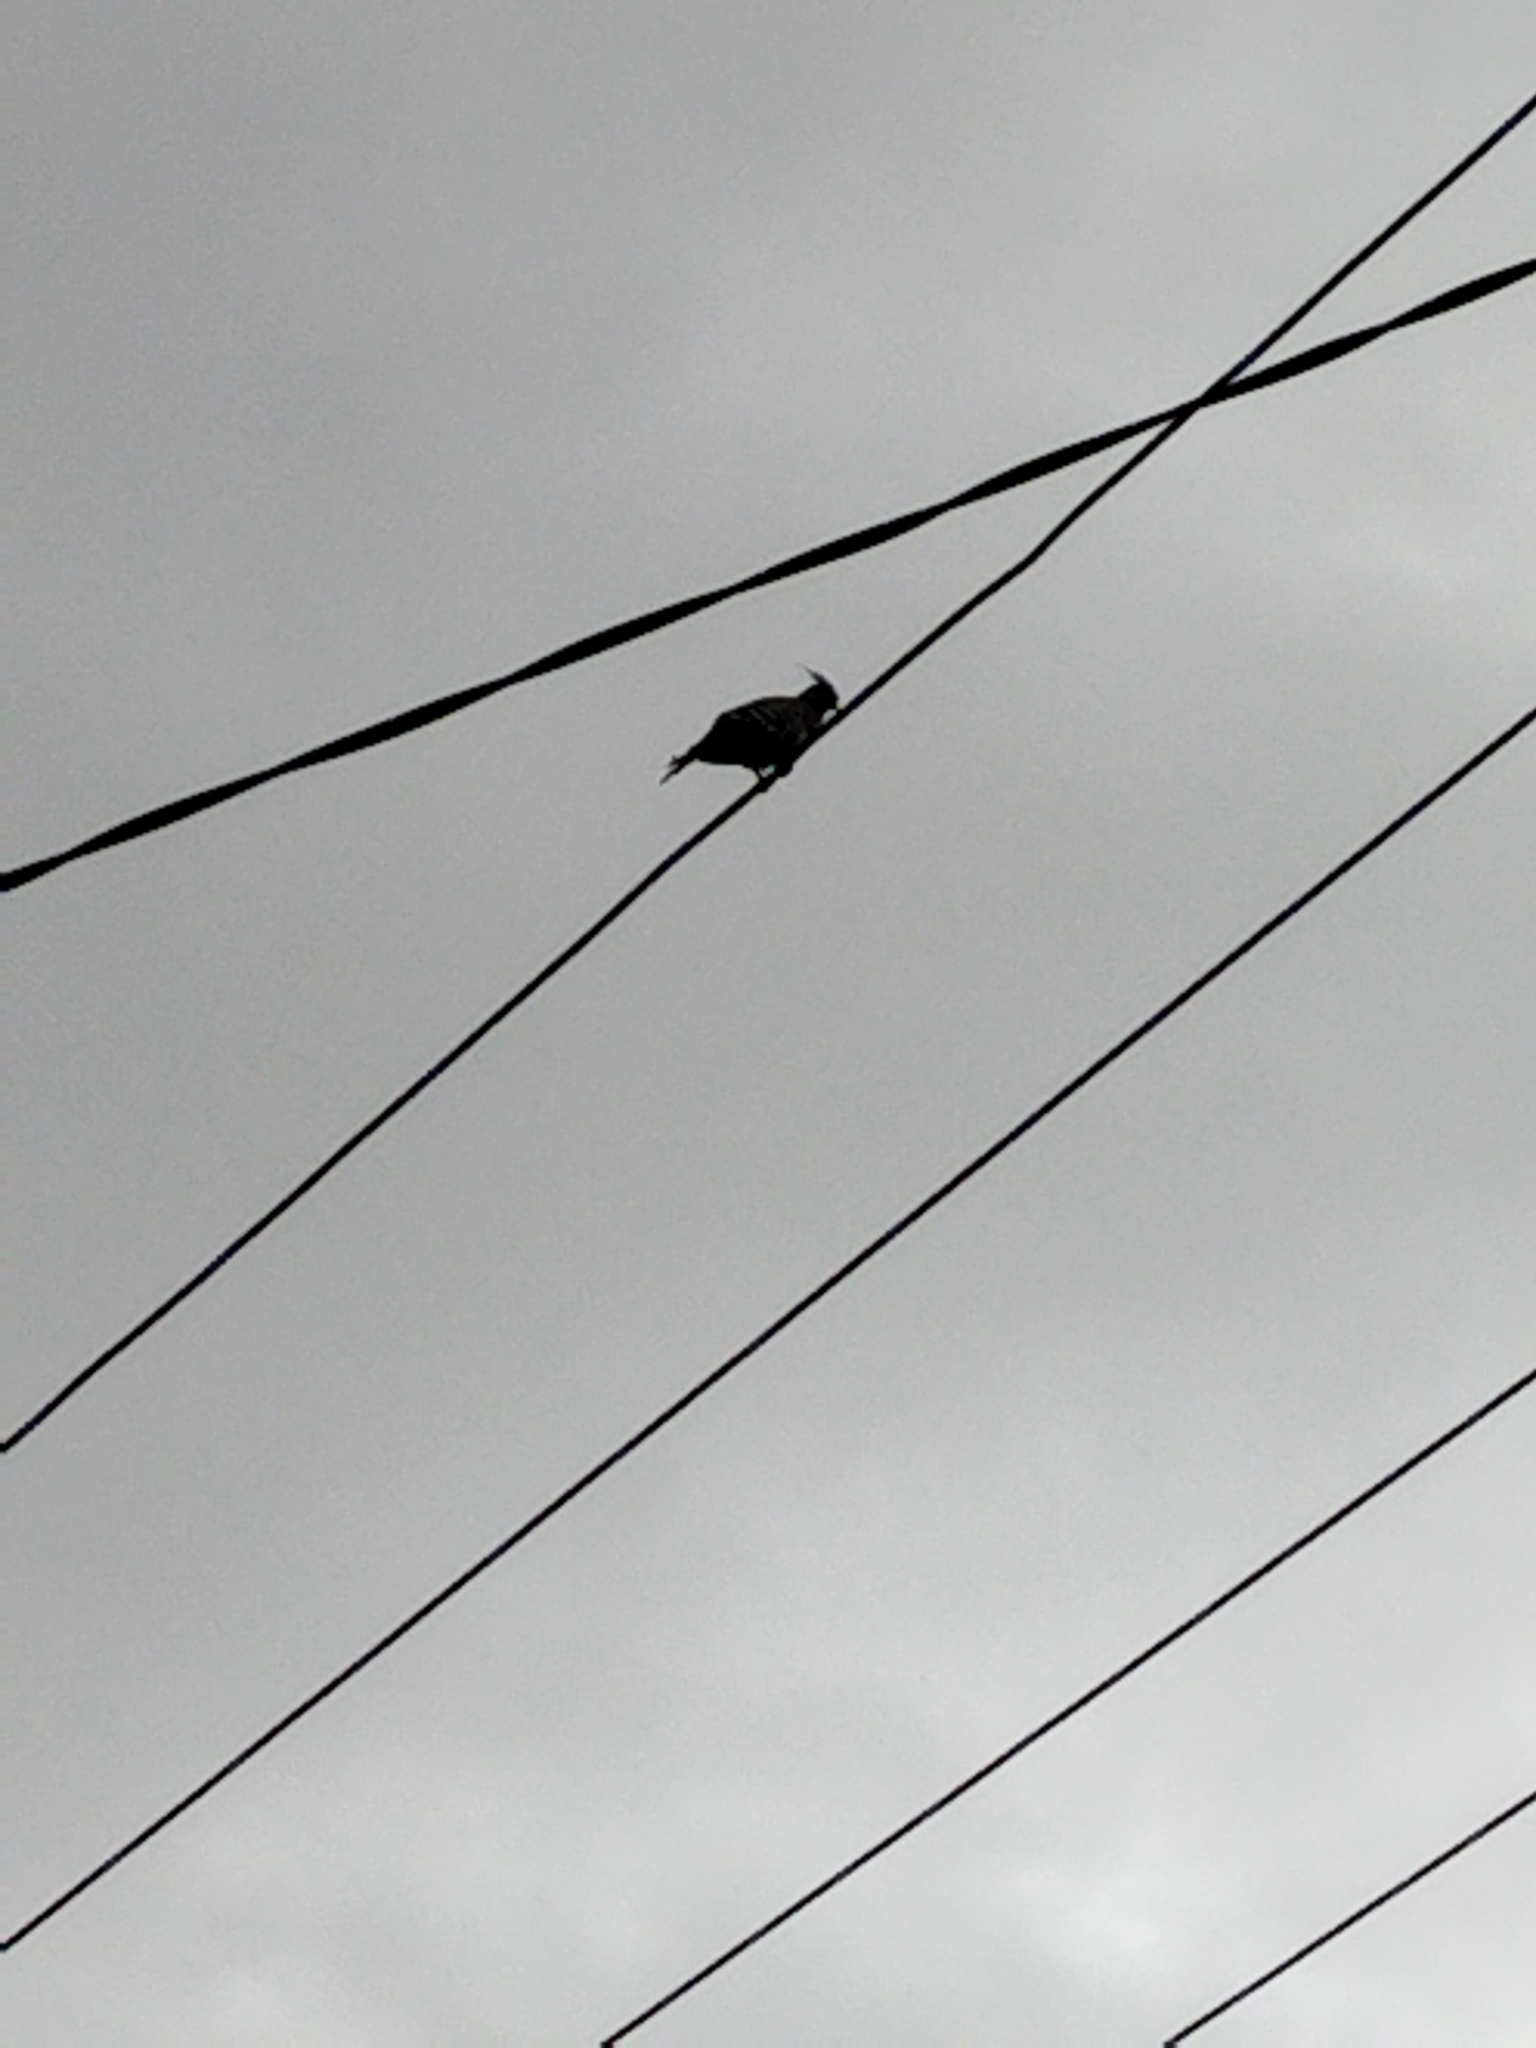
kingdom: Animalia
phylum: Chordata
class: Aves
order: Columbiformes
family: Columbidae
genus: Ocyphaps
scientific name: Ocyphaps lophotes
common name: Crested pigeon
